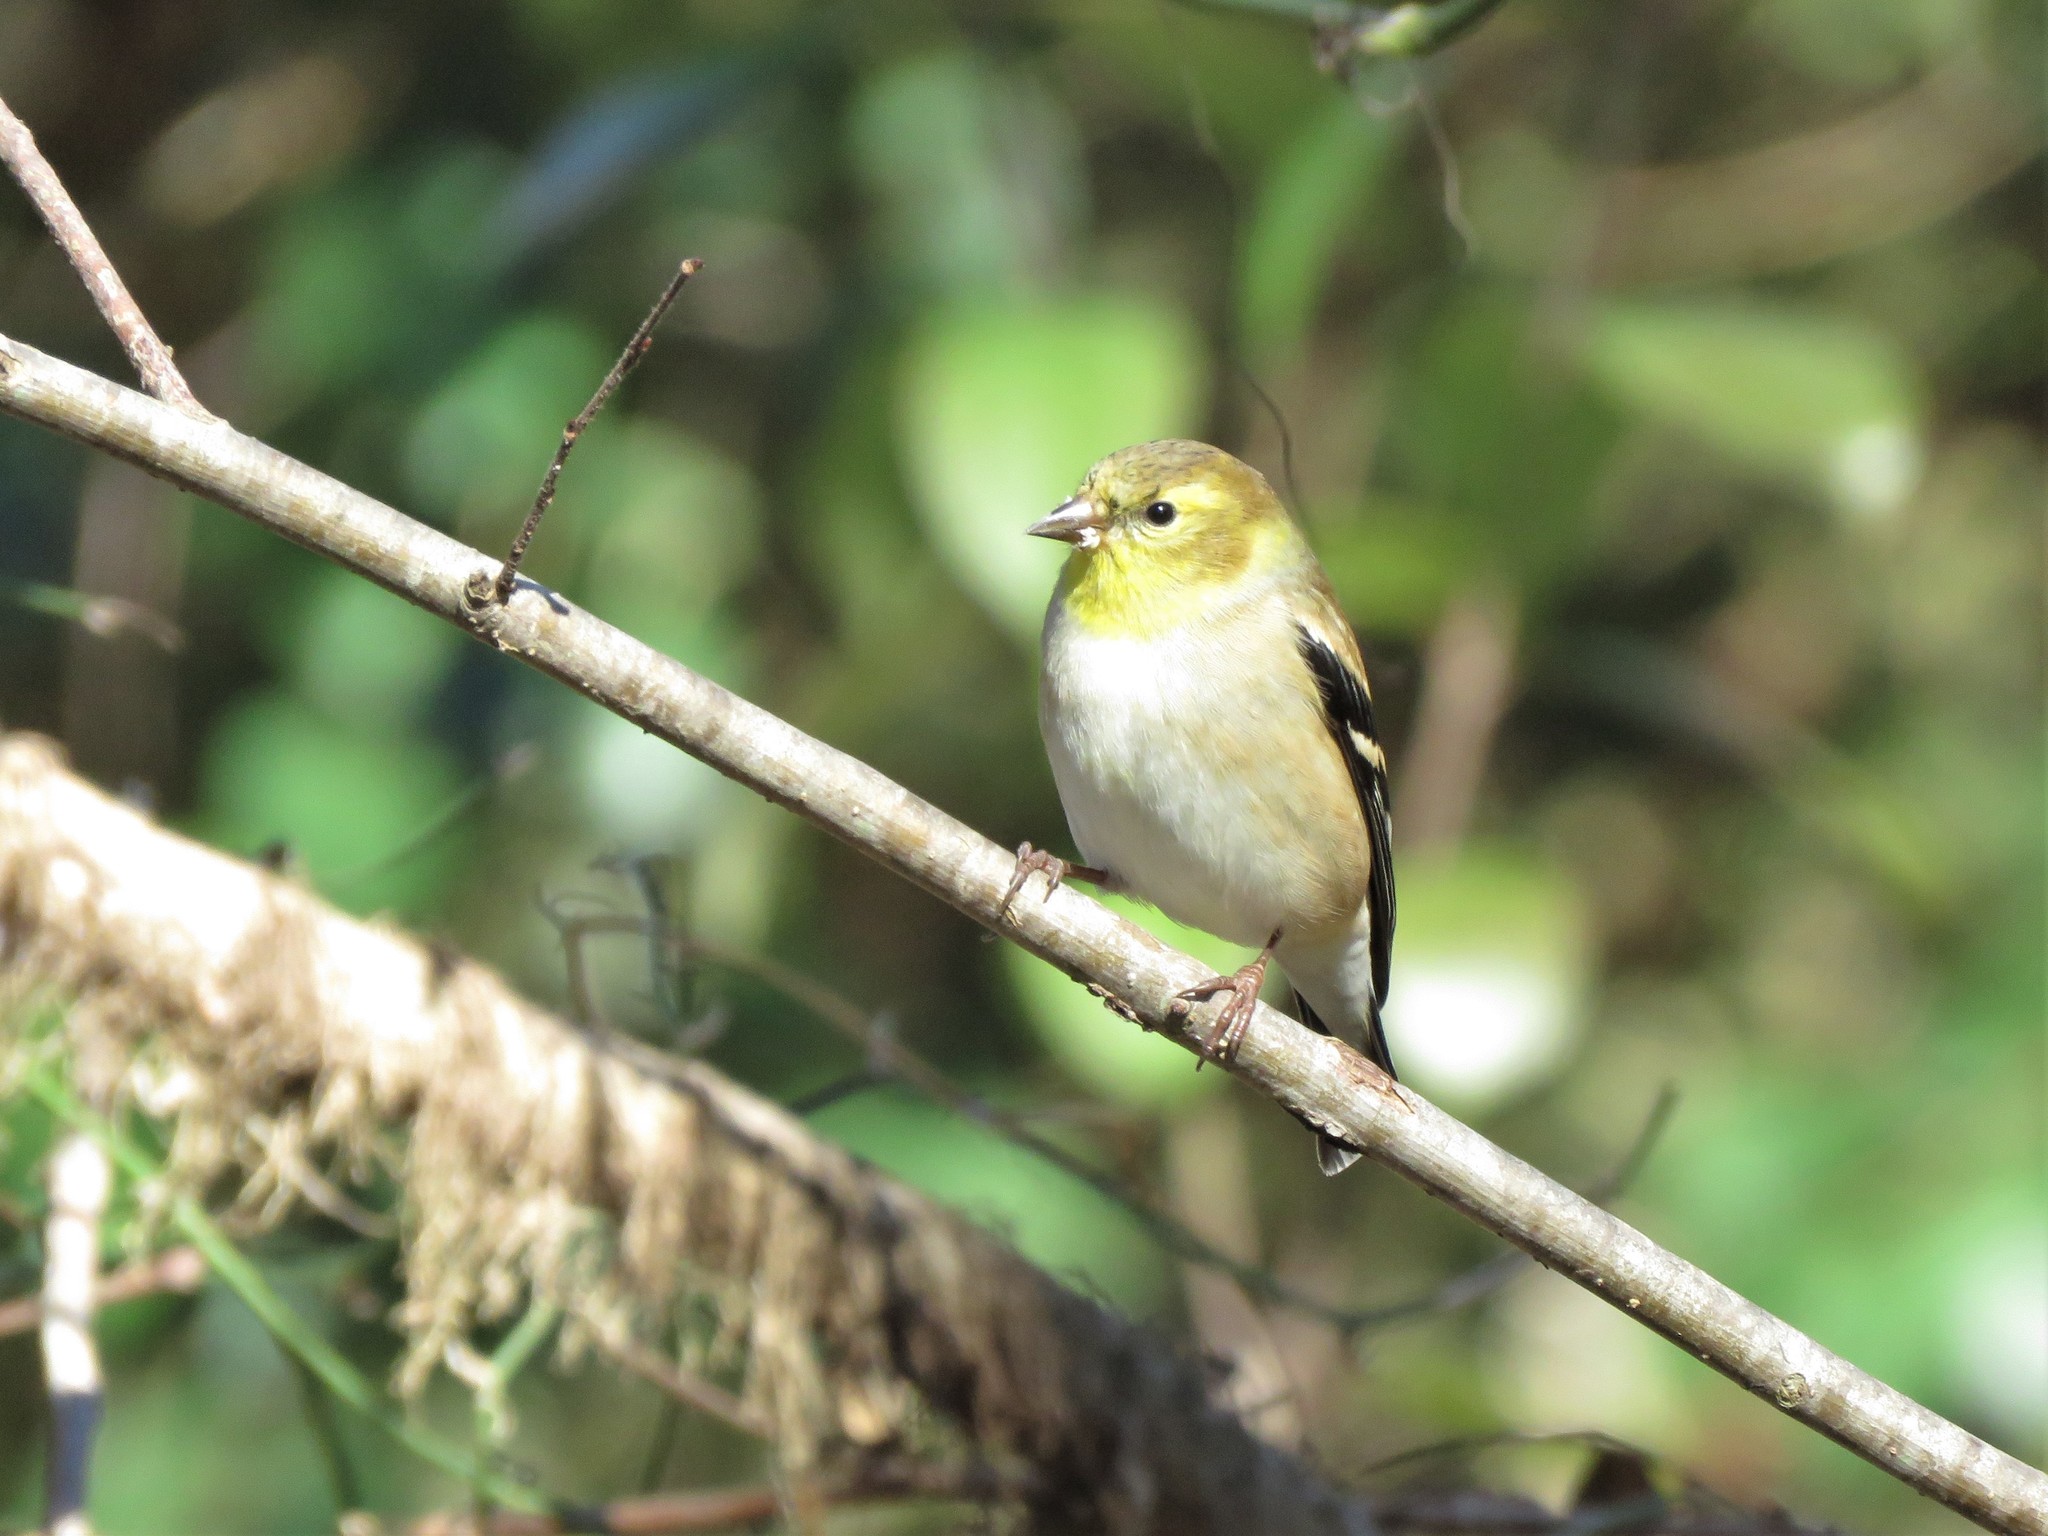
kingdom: Animalia
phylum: Chordata
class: Aves
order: Passeriformes
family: Fringillidae
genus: Spinus
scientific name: Spinus tristis
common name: American goldfinch
